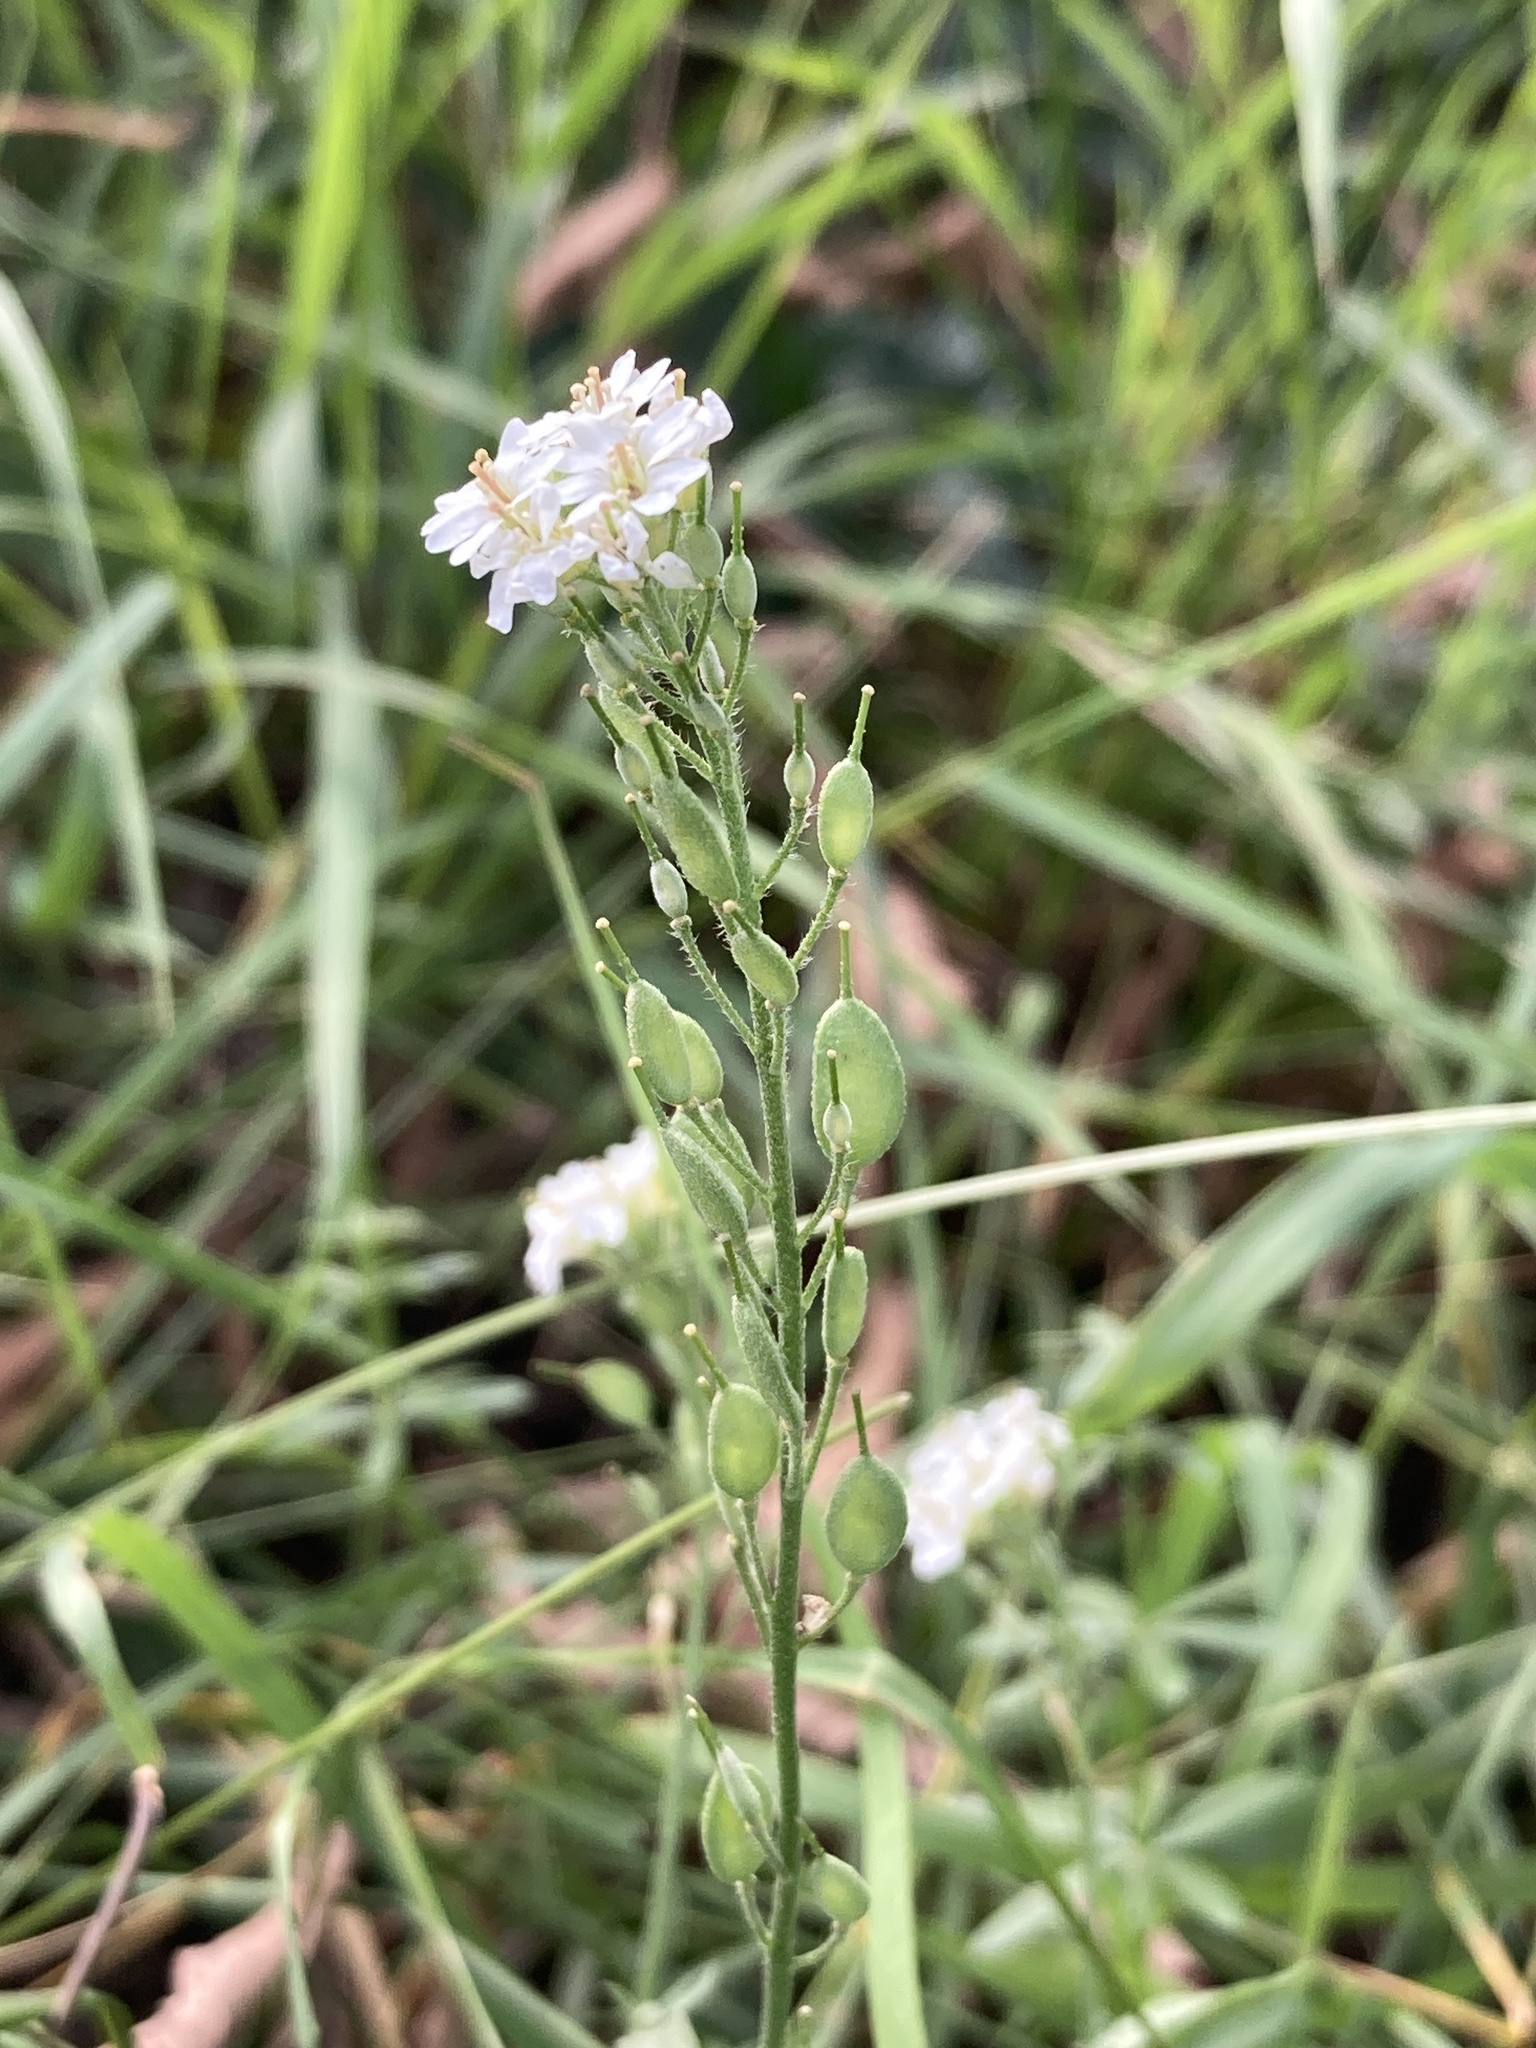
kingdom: Plantae
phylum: Tracheophyta
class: Magnoliopsida
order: Brassicales
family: Brassicaceae
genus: Berteroa
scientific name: Berteroa incana
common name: Hoary alison
